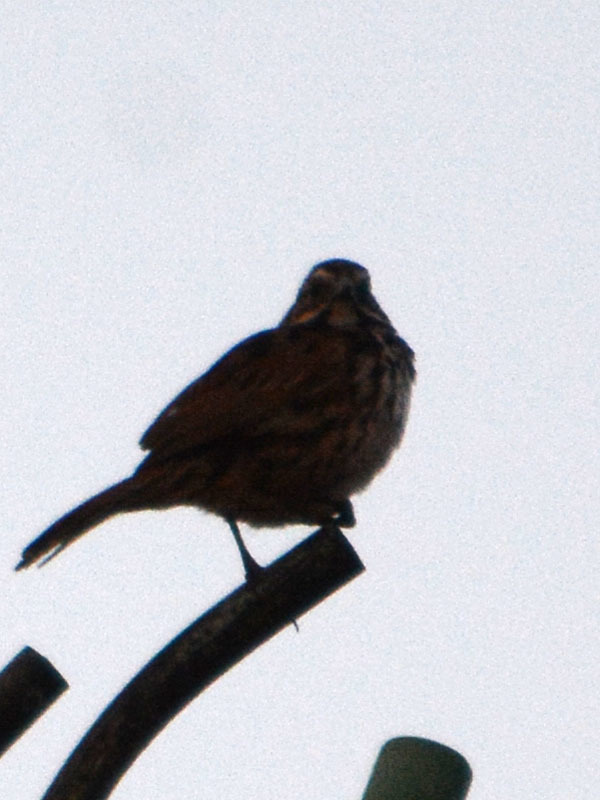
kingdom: Animalia
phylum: Chordata
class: Aves
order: Passeriformes
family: Passerellidae
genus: Melospiza
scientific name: Melospiza melodia
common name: Song sparrow
